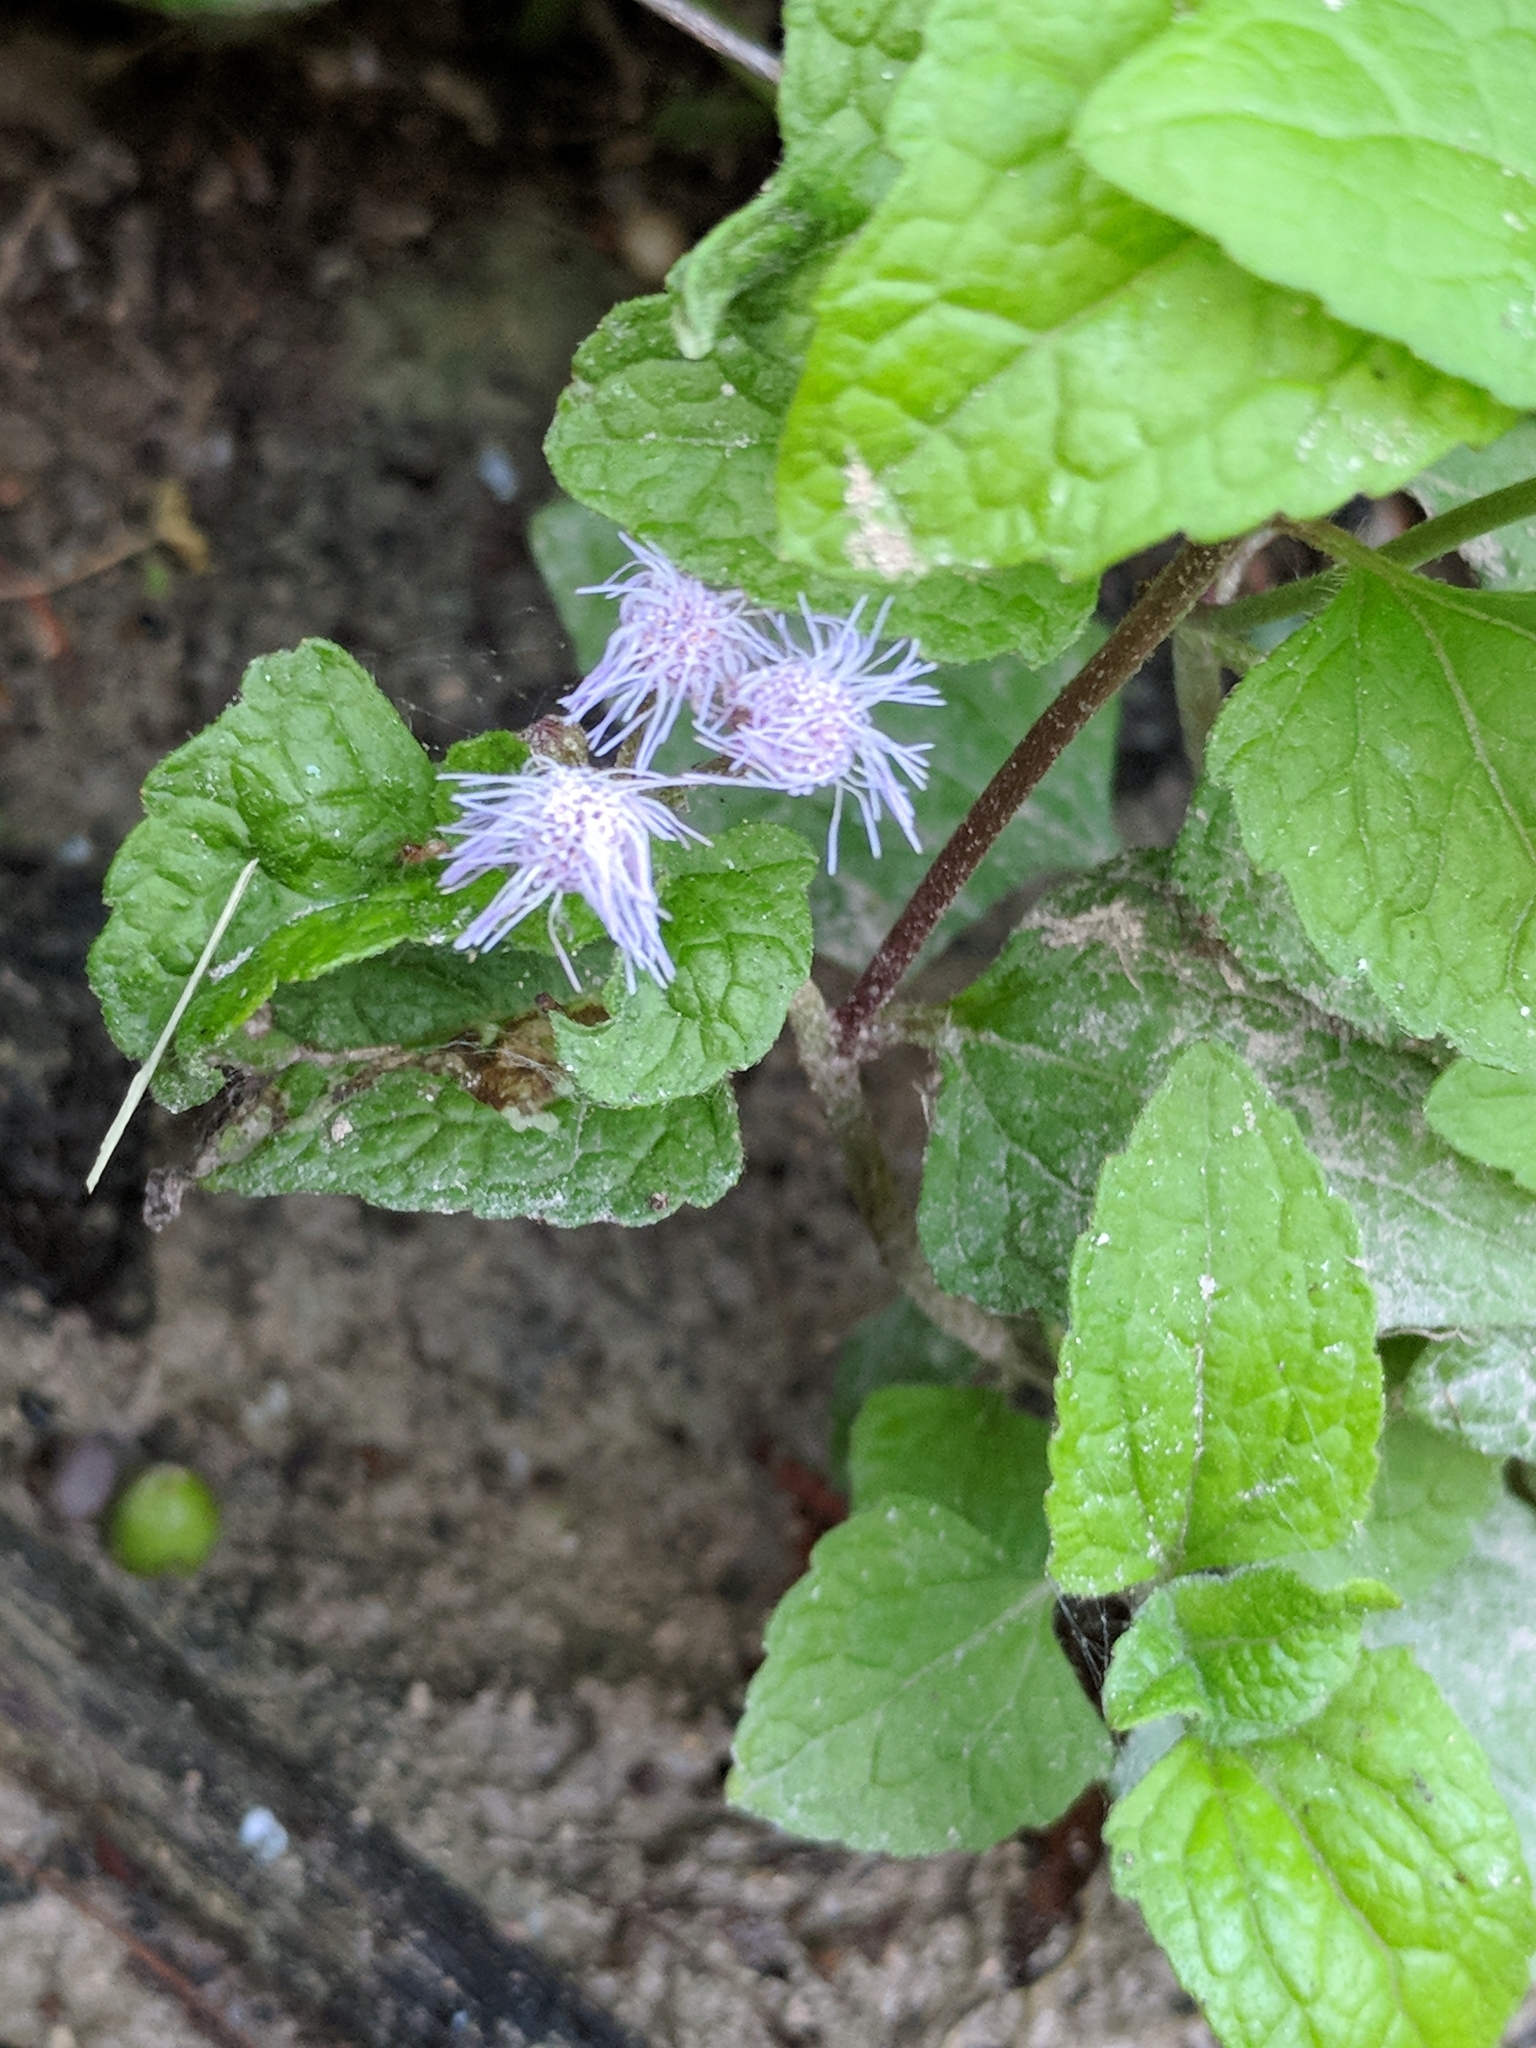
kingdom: Plantae
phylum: Tracheophyta
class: Magnoliopsida
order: Asterales
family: Asteraceae
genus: Conoclinium
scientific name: Conoclinium coelestinum
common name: Blue mistflower
